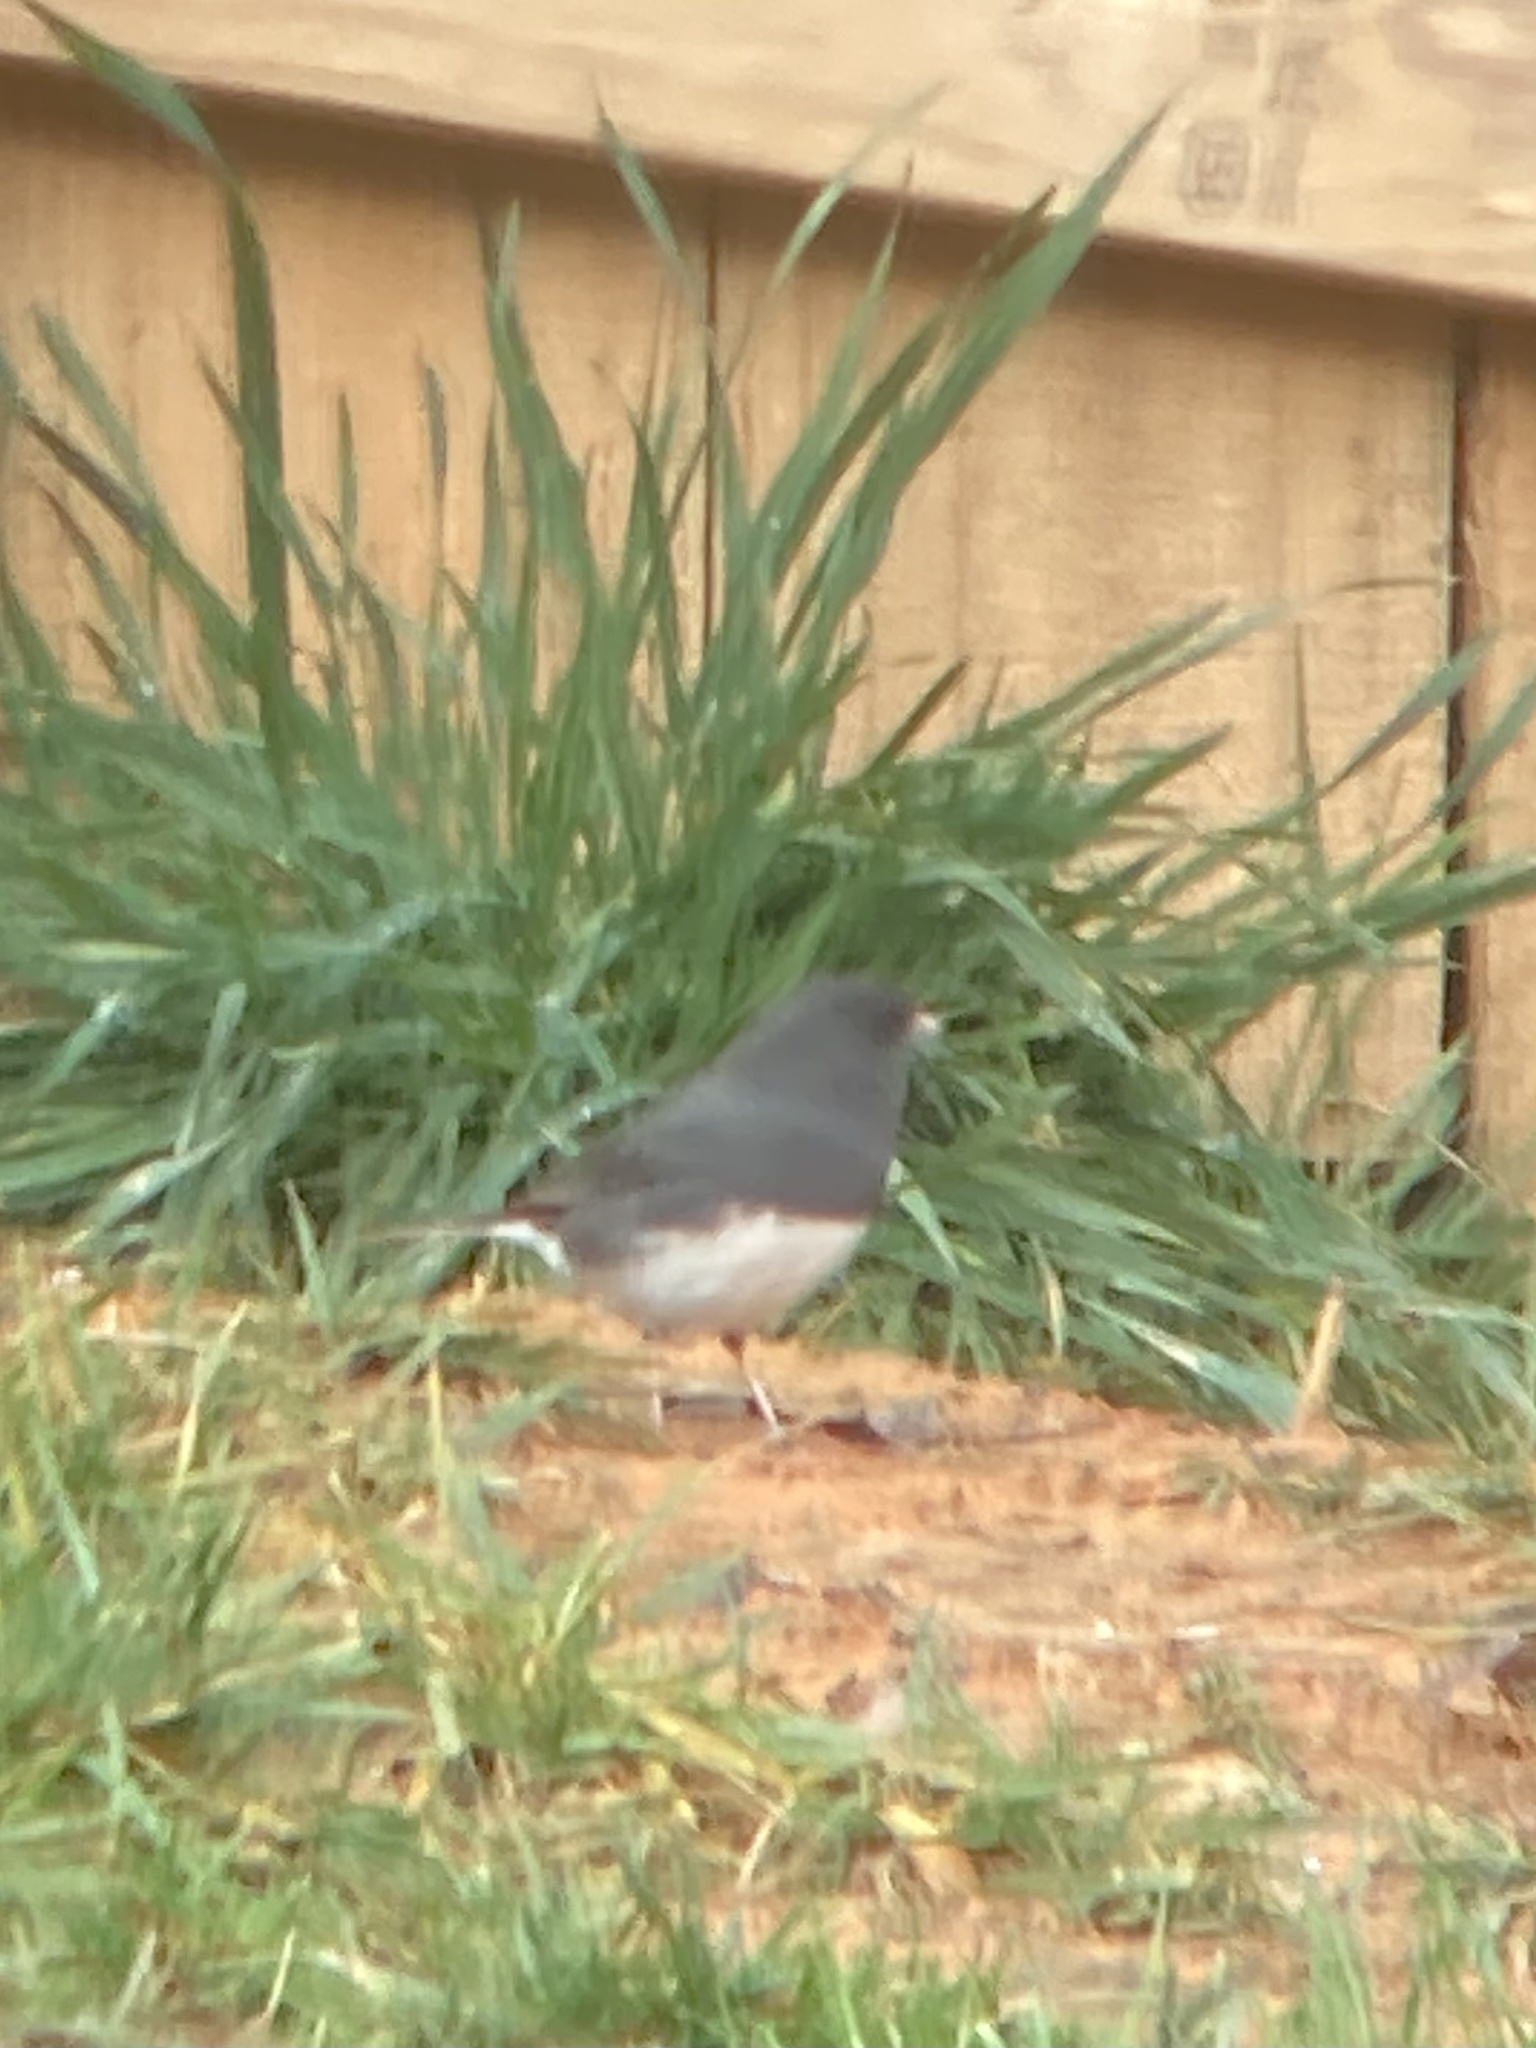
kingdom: Animalia
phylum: Chordata
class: Aves
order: Passeriformes
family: Passerellidae
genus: Junco
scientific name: Junco hyemalis
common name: Dark-eyed junco
